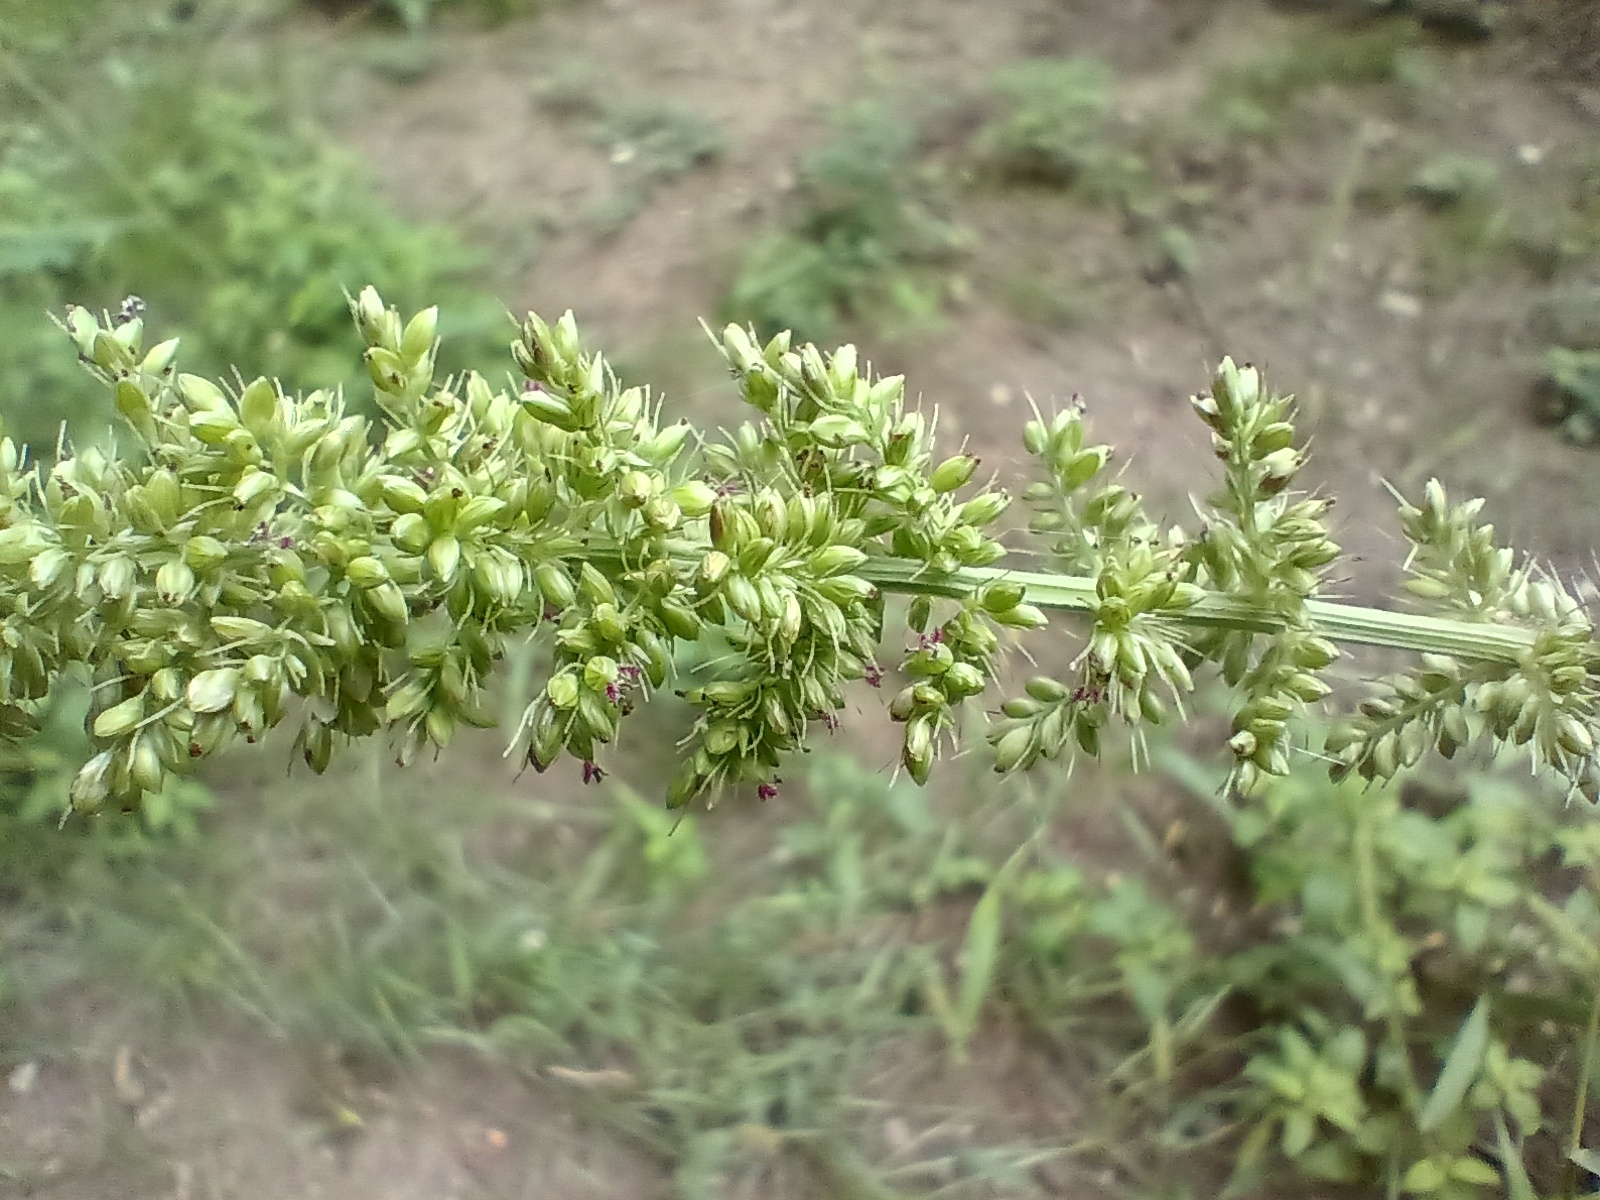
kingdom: Plantae
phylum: Tracheophyta
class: Liliopsida
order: Poales
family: Poaceae
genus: Setaria
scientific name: Setaria verticillata
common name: Hooked bristlegrass
